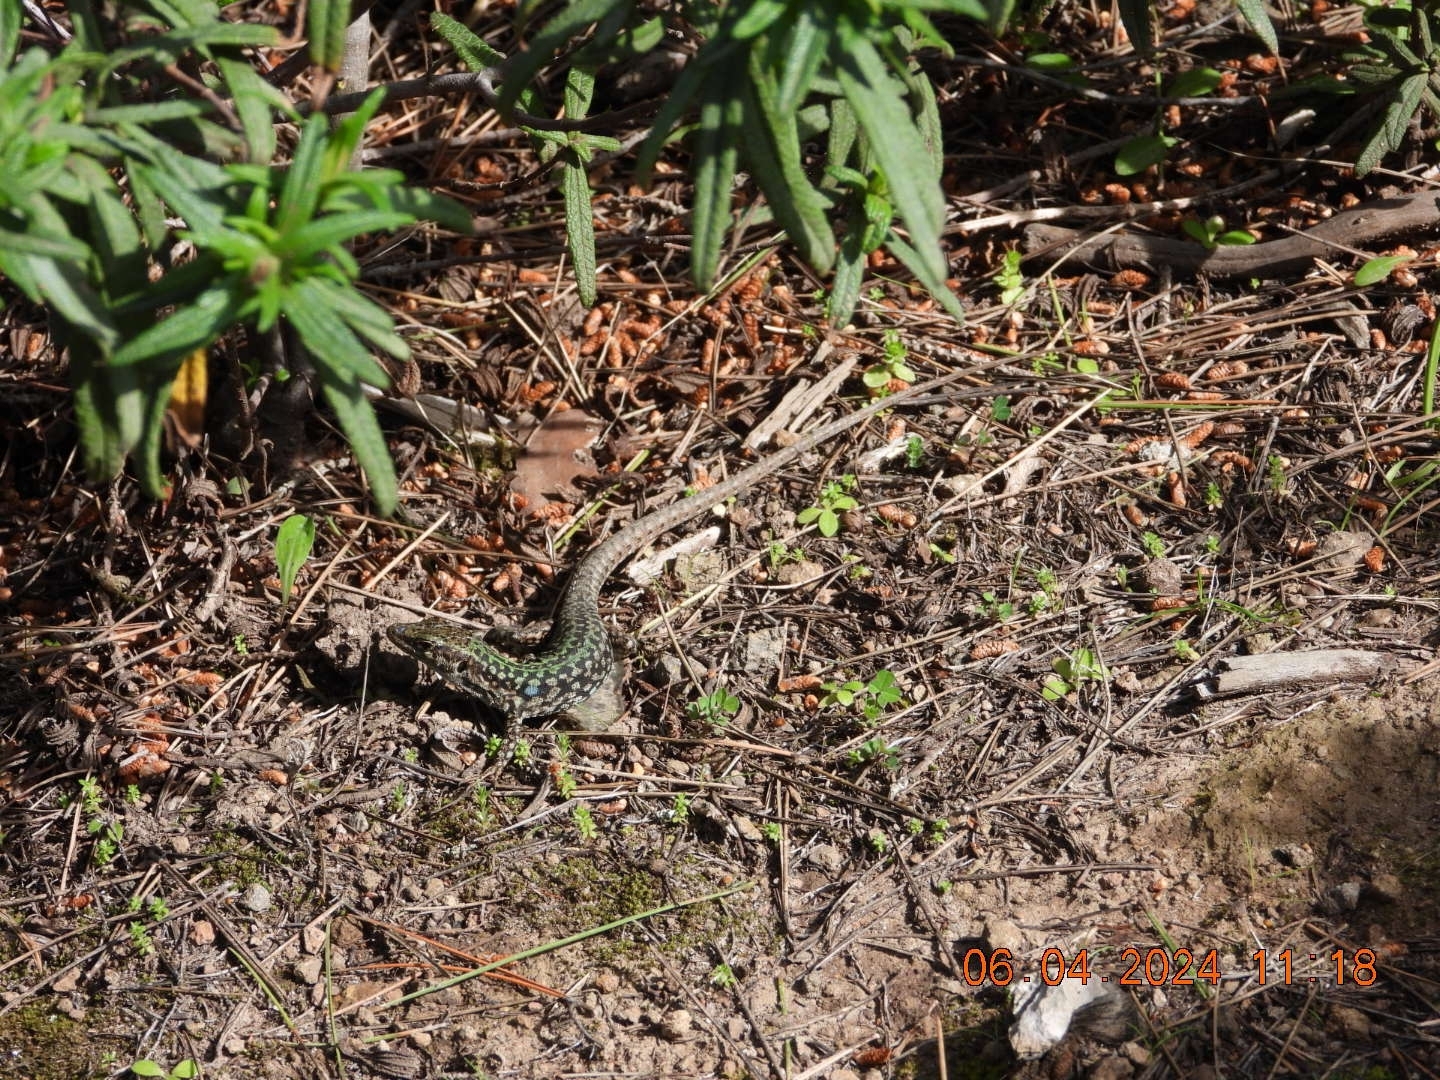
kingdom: Animalia
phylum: Chordata
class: Squamata
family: Lacertidae
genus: Podarcis
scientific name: Podarcis siculus
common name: Italian wall lizard
